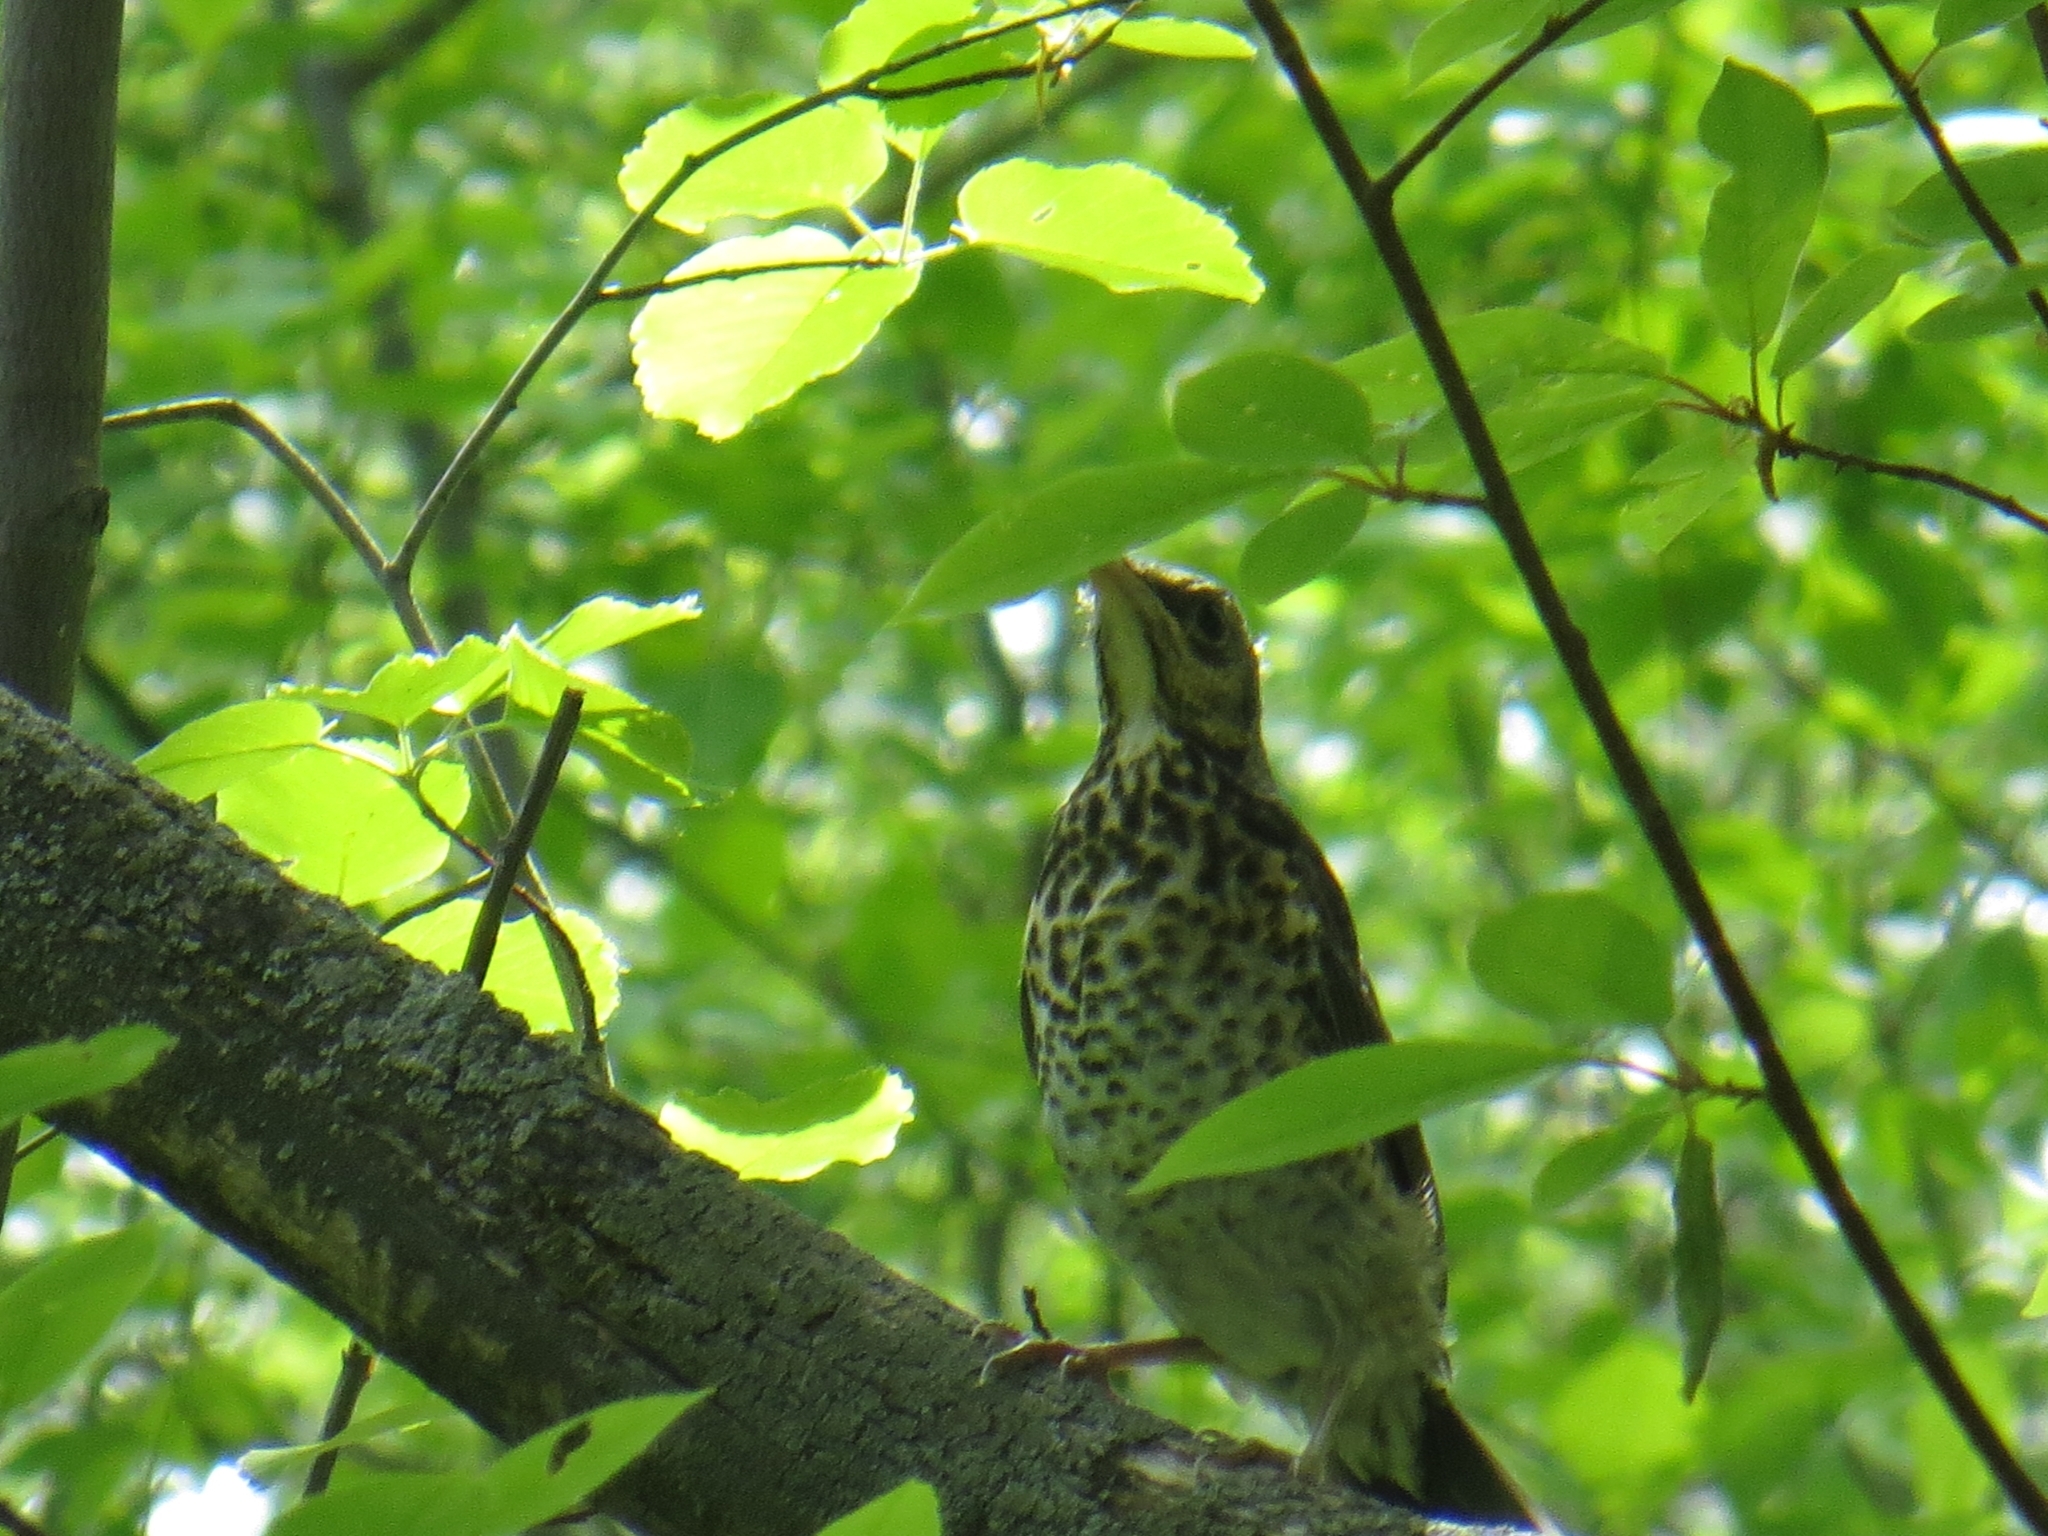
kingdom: Animalia
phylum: Chordata
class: Aves
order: Passeriformes
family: Turdidae
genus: Turdus
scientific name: Turdus pilaris
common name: Fieldfare
